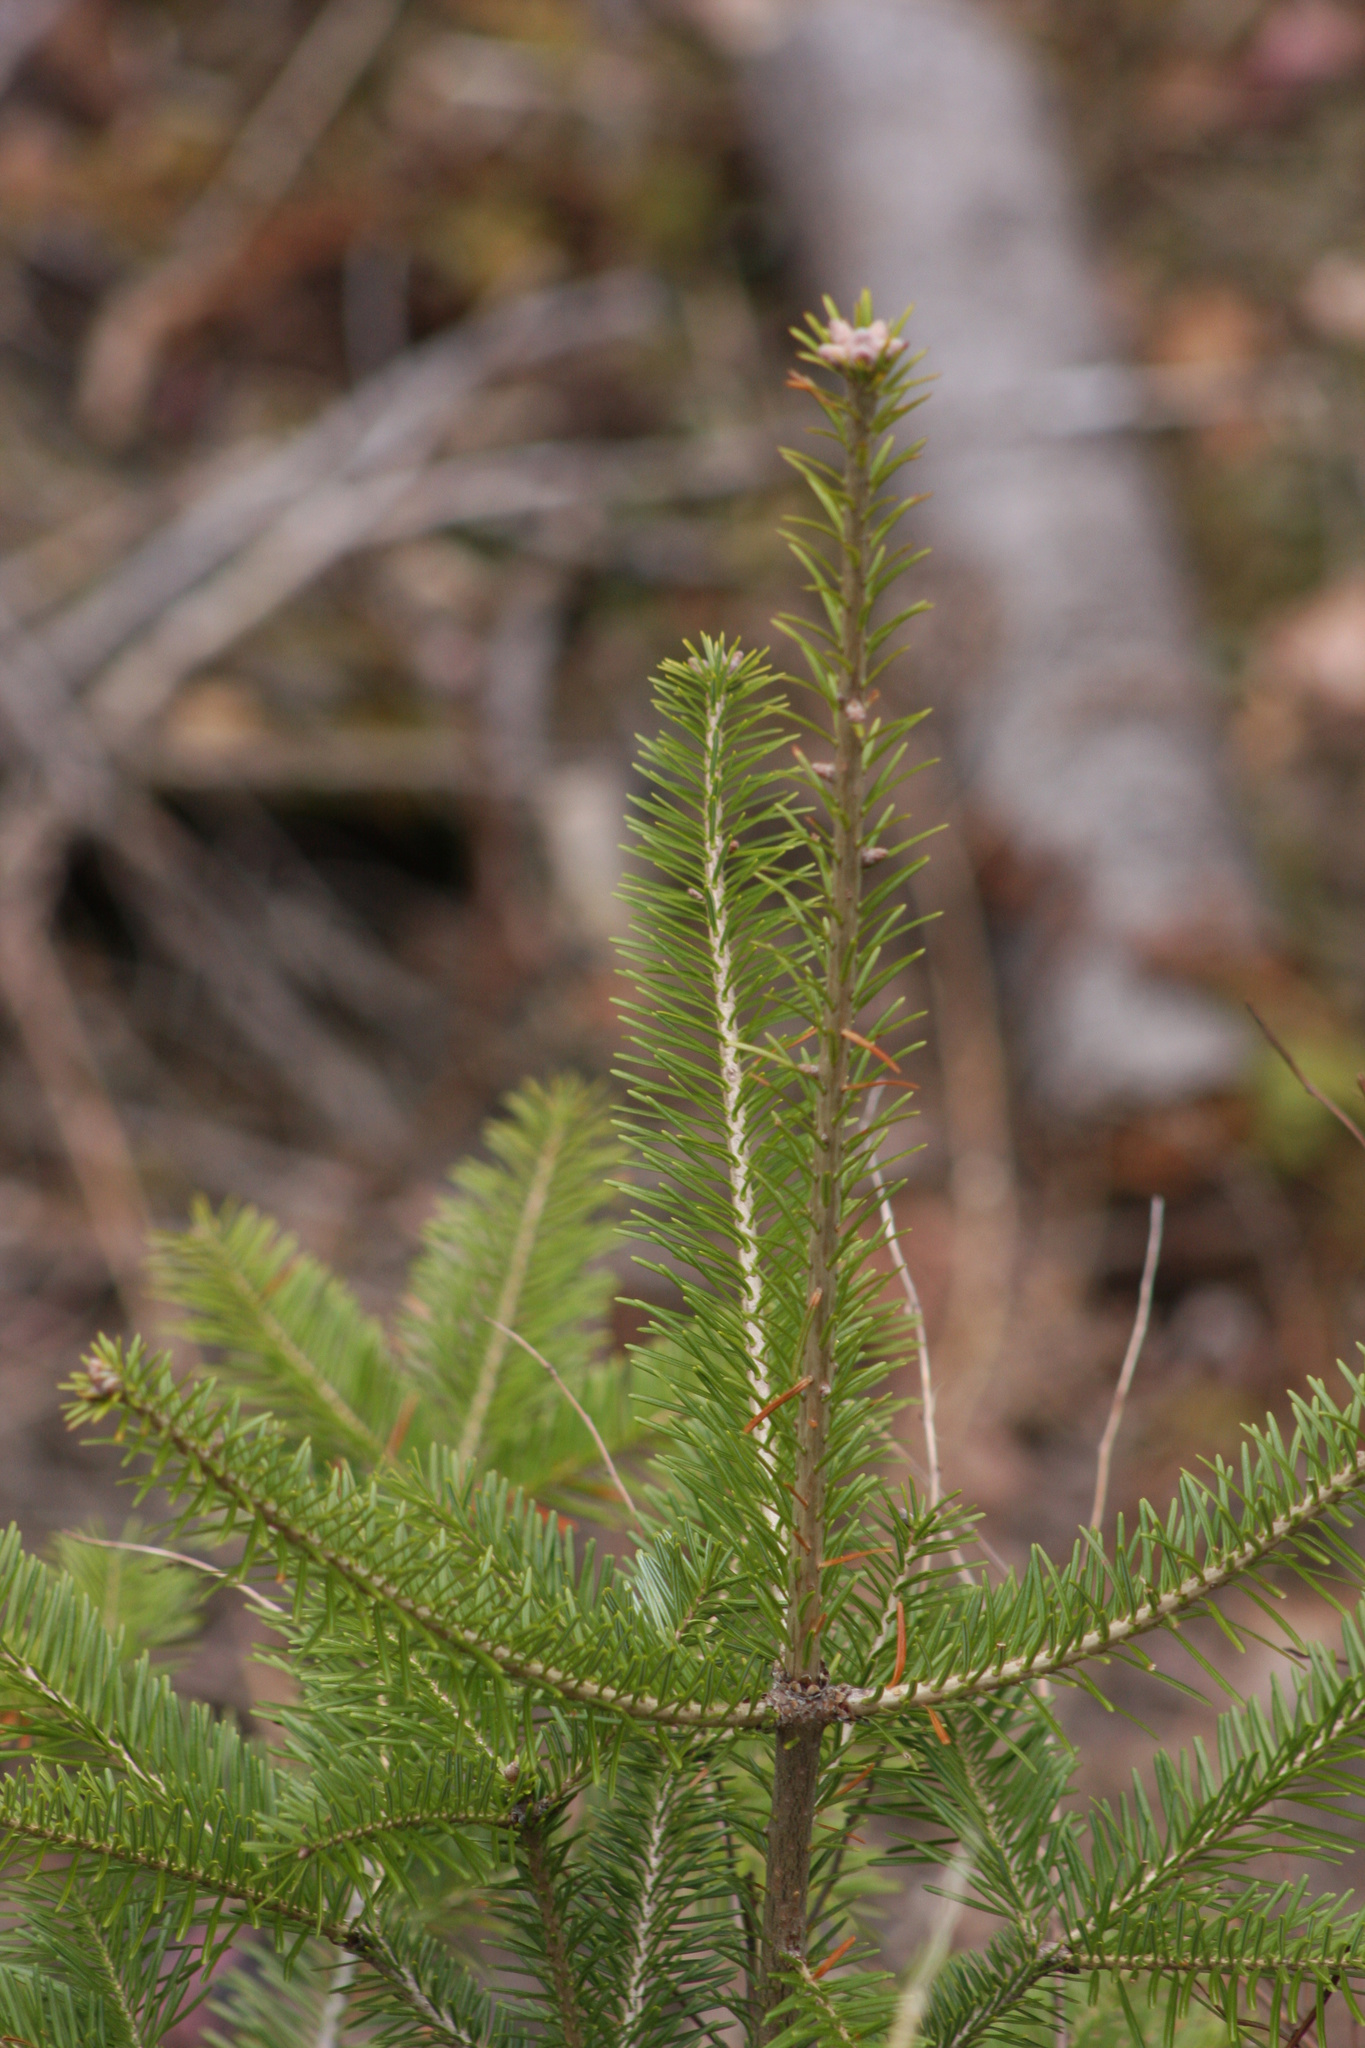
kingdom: Plantae
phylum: Tracheophyta
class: Pinopsida
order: Pinales
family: Pinaceae
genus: Abies
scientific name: Abies balsamea
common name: Balsam fir
